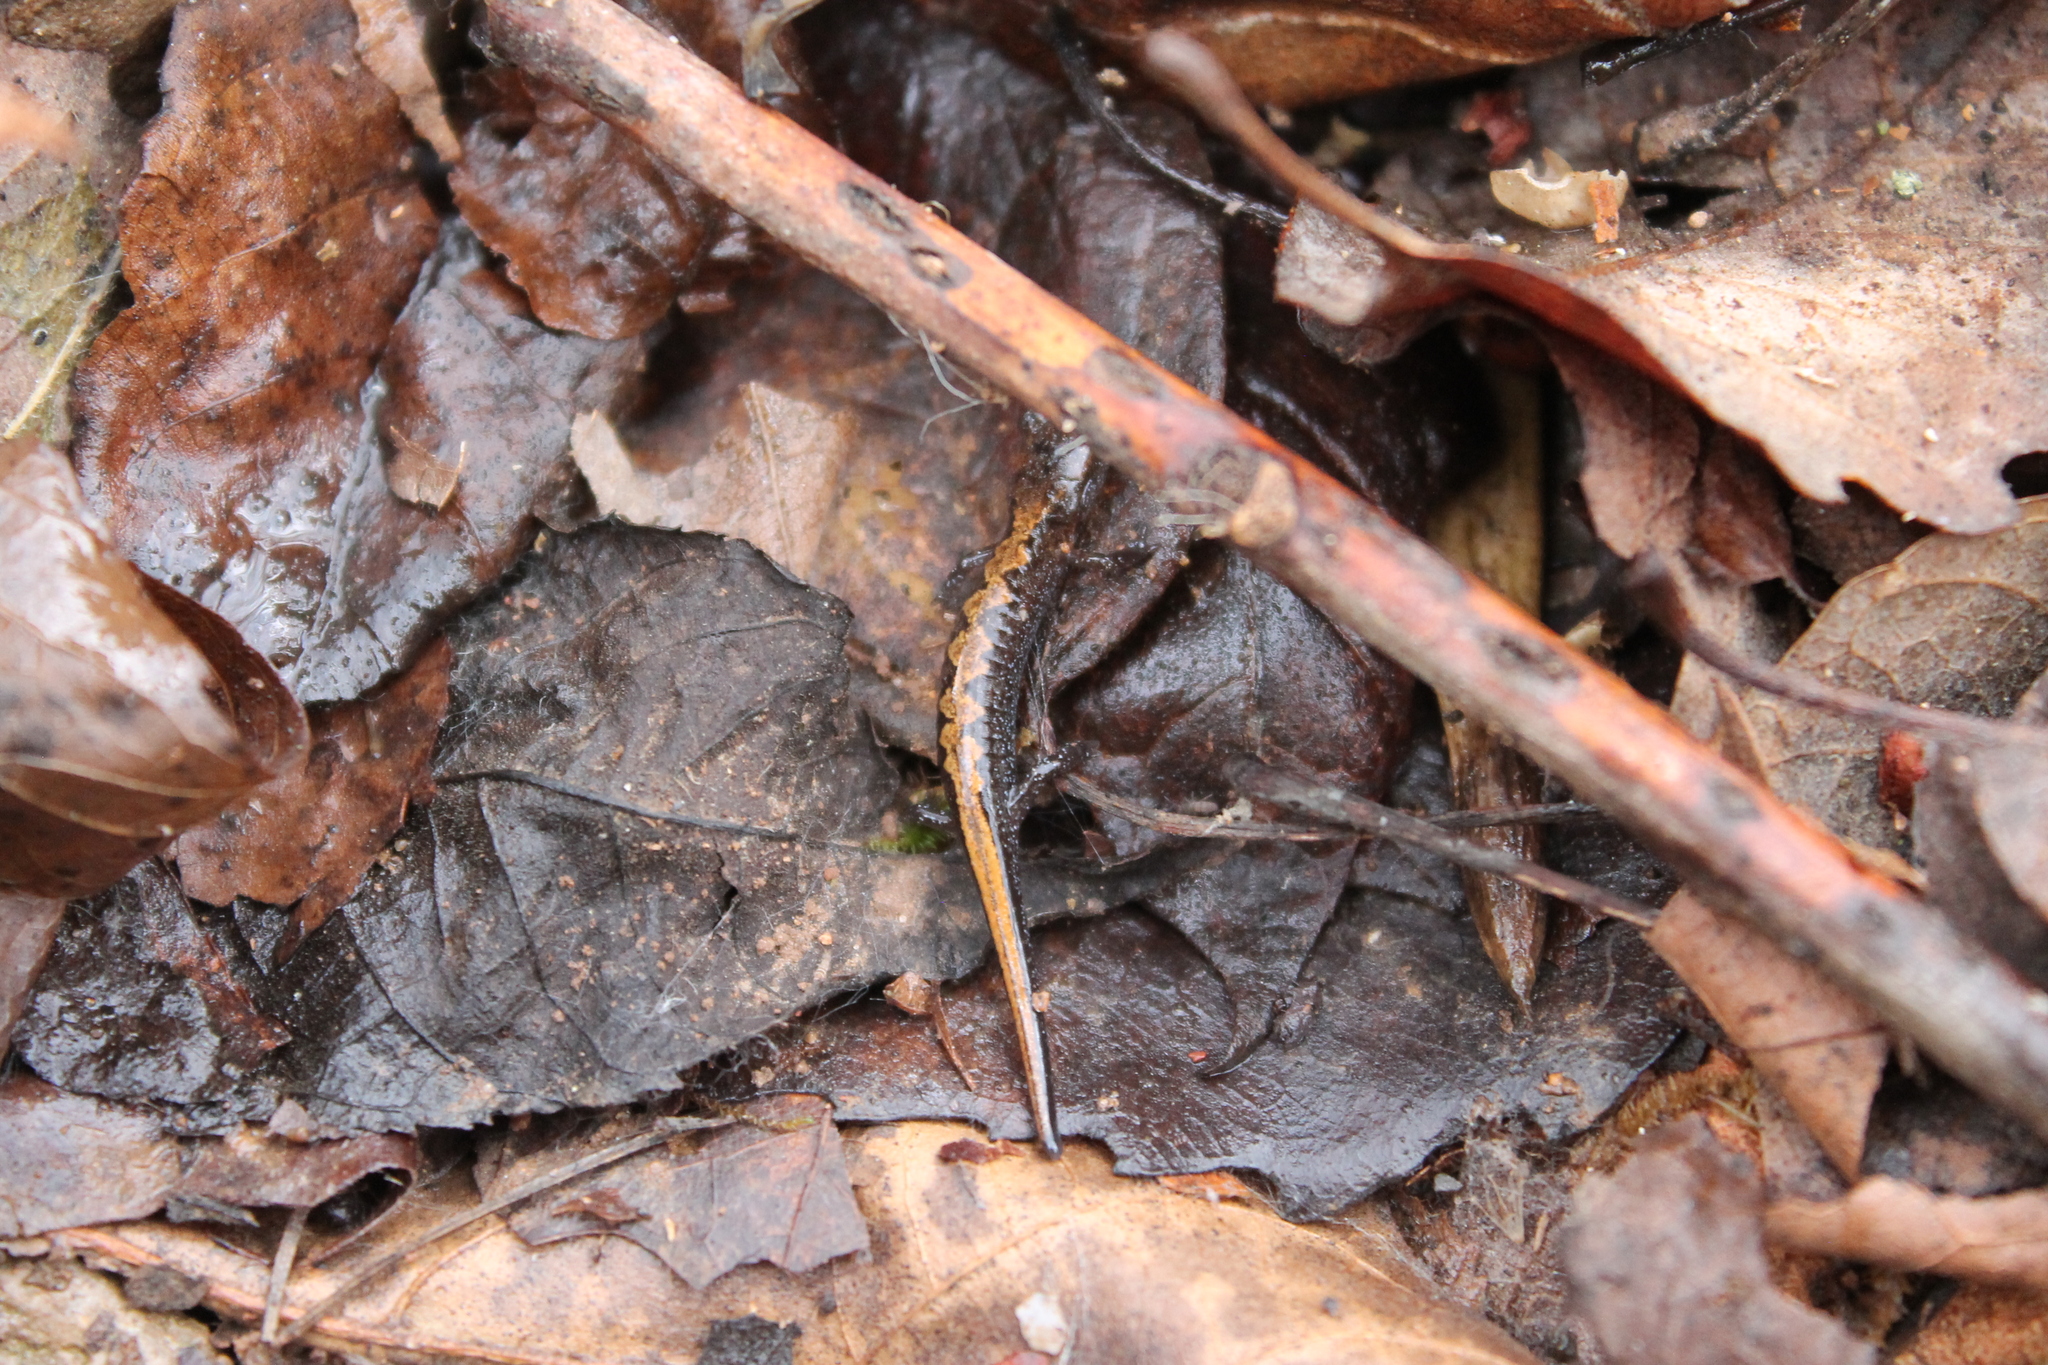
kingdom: Animalia
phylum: Chordata
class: Amphibia
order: Caudata
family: Plethodontidae
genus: Plethodon
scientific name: Plethodon dorsalis
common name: Northern zigzag salamander
